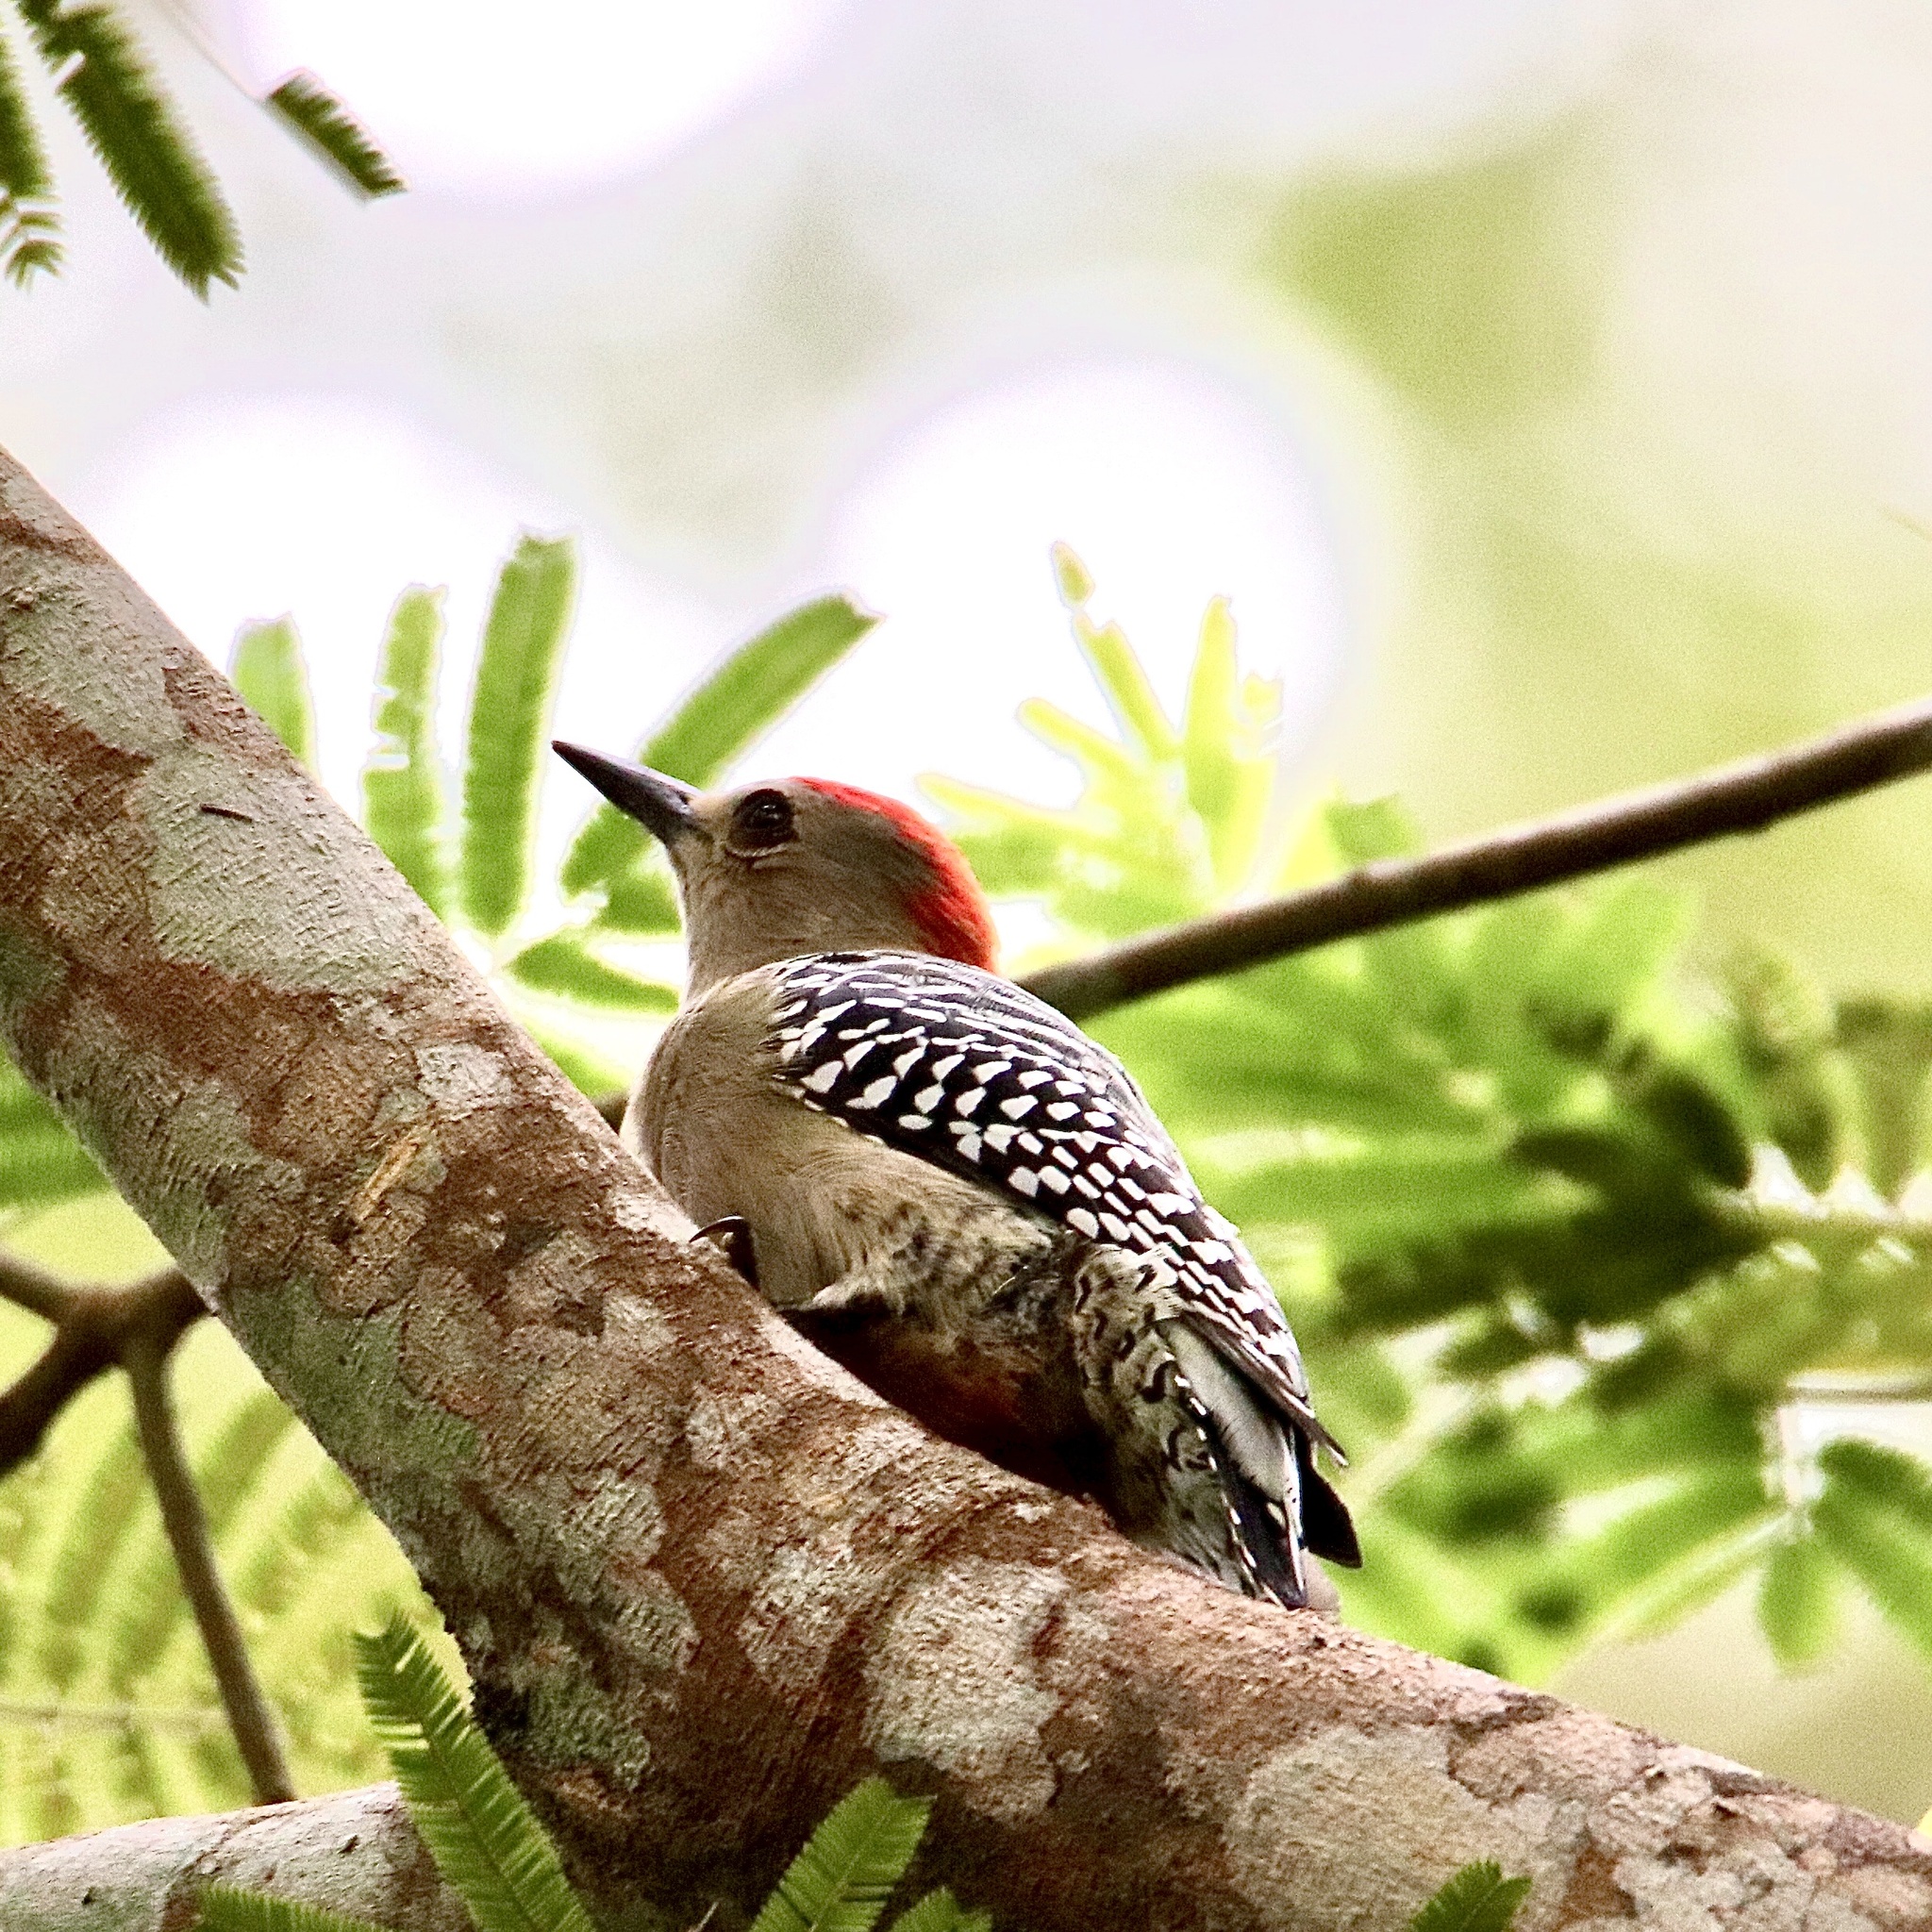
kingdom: Animalia
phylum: Chordata
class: Aves
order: Piciformes
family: Picidae
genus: Melanerpes
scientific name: Melanerpes rubricapillus
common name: Red-crowned woodpecker
